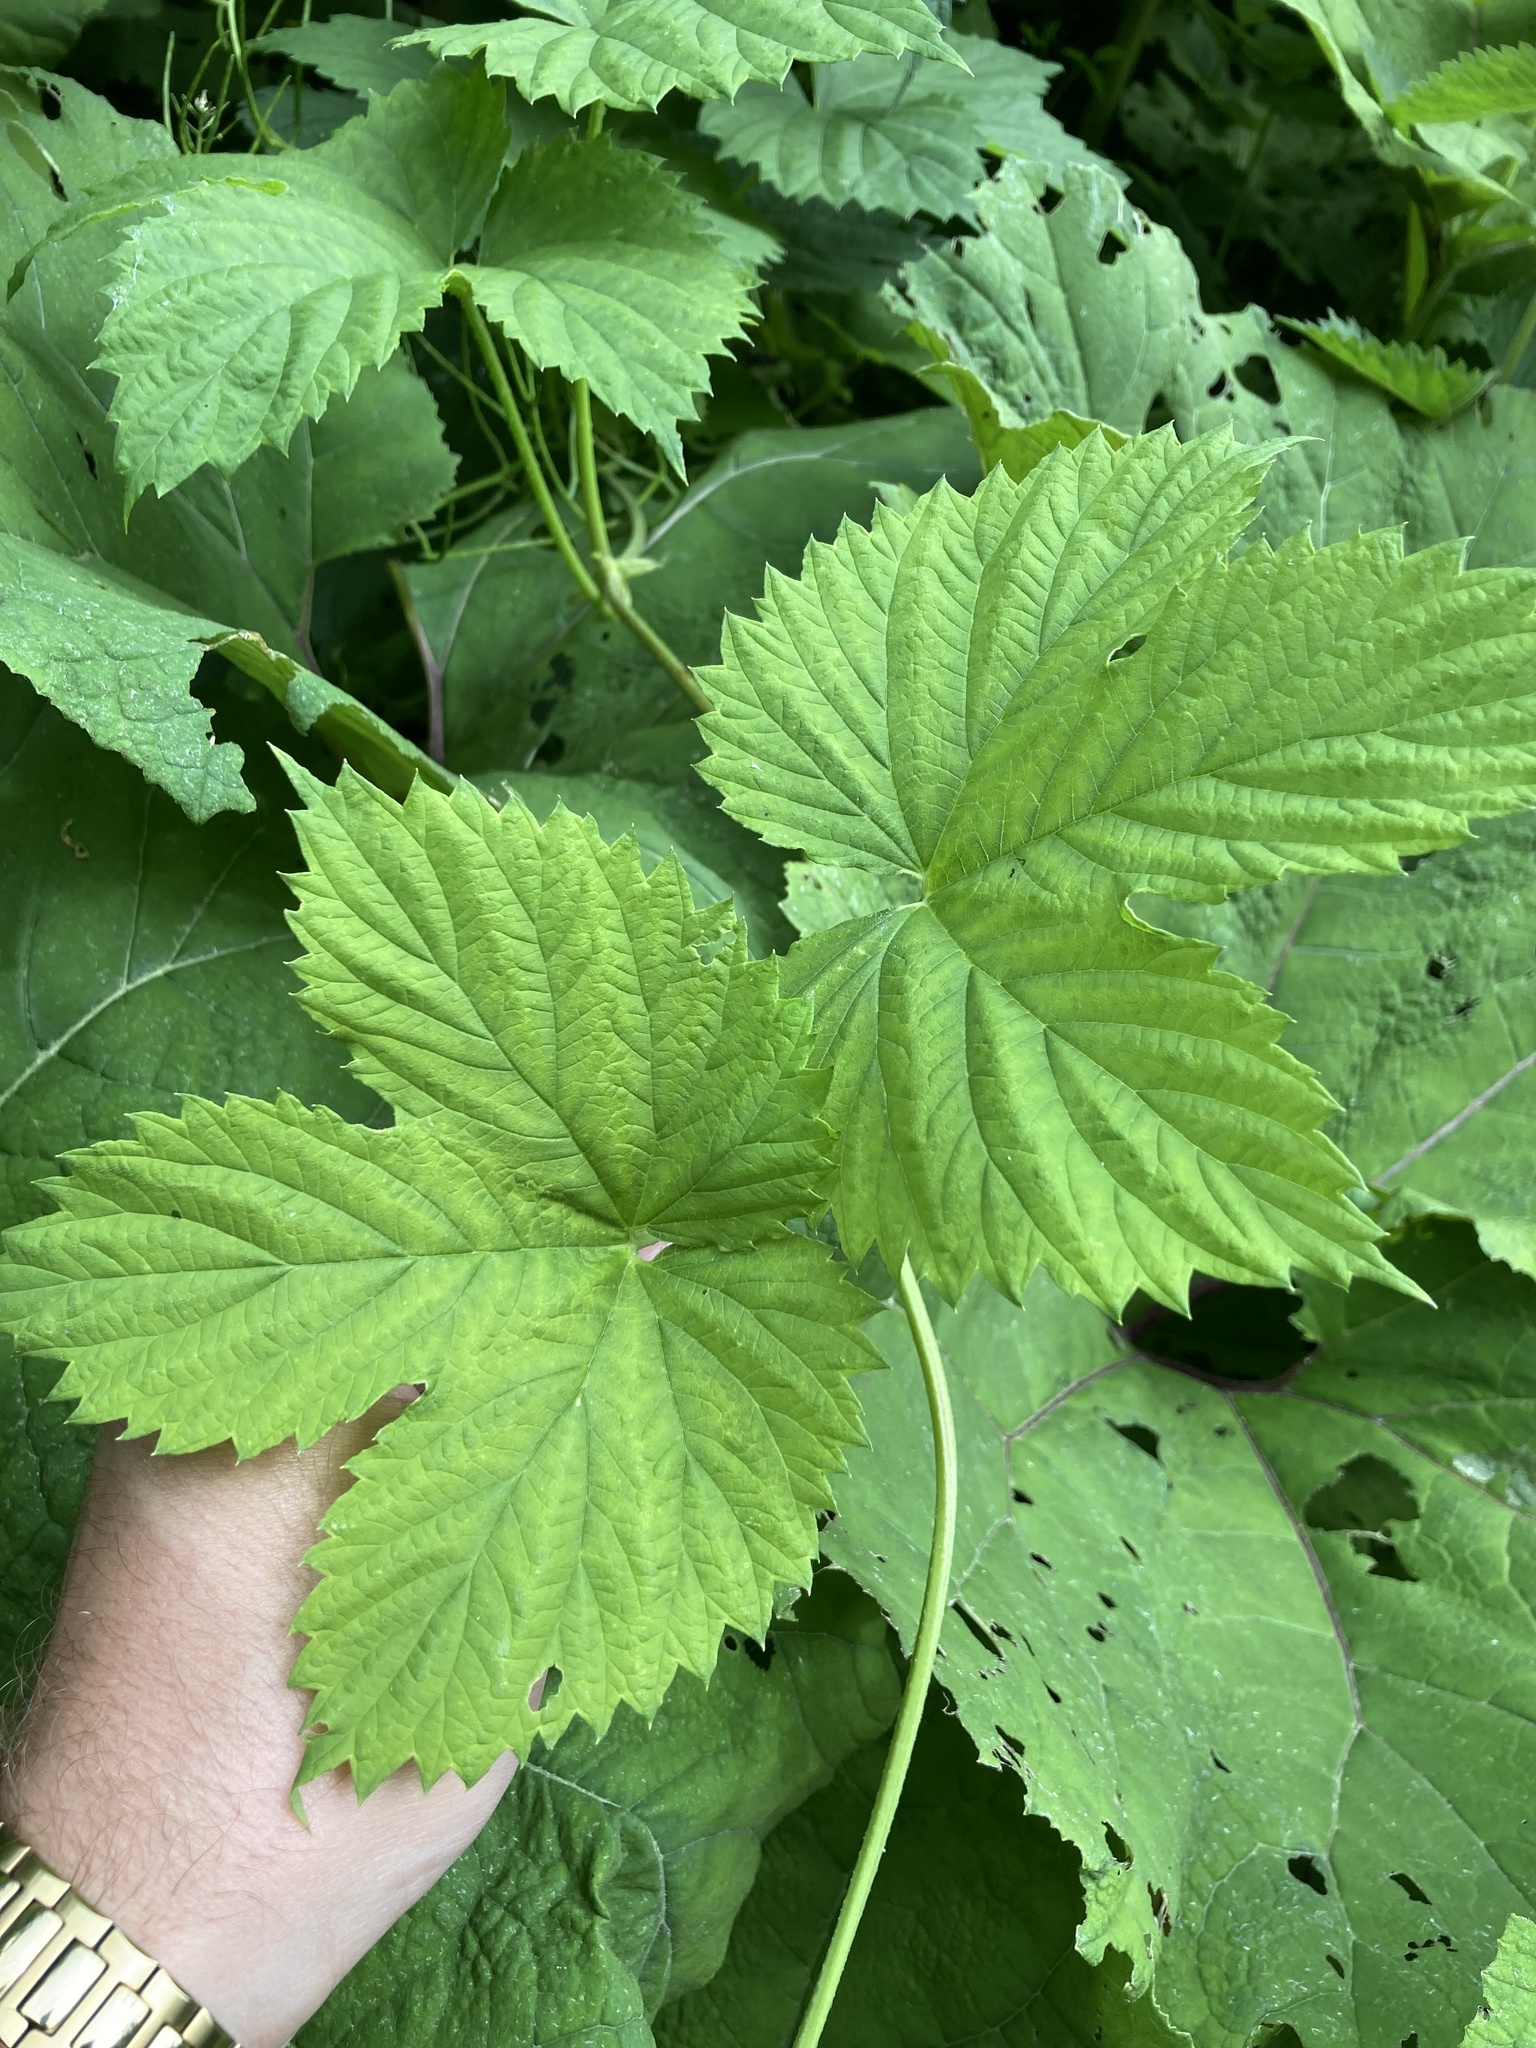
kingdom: Plantae
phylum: Tracheophyta
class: Magnoliopsida
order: Rosales
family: Cannabaceae
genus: Humulus
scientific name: Humulus lupulus
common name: Hop
